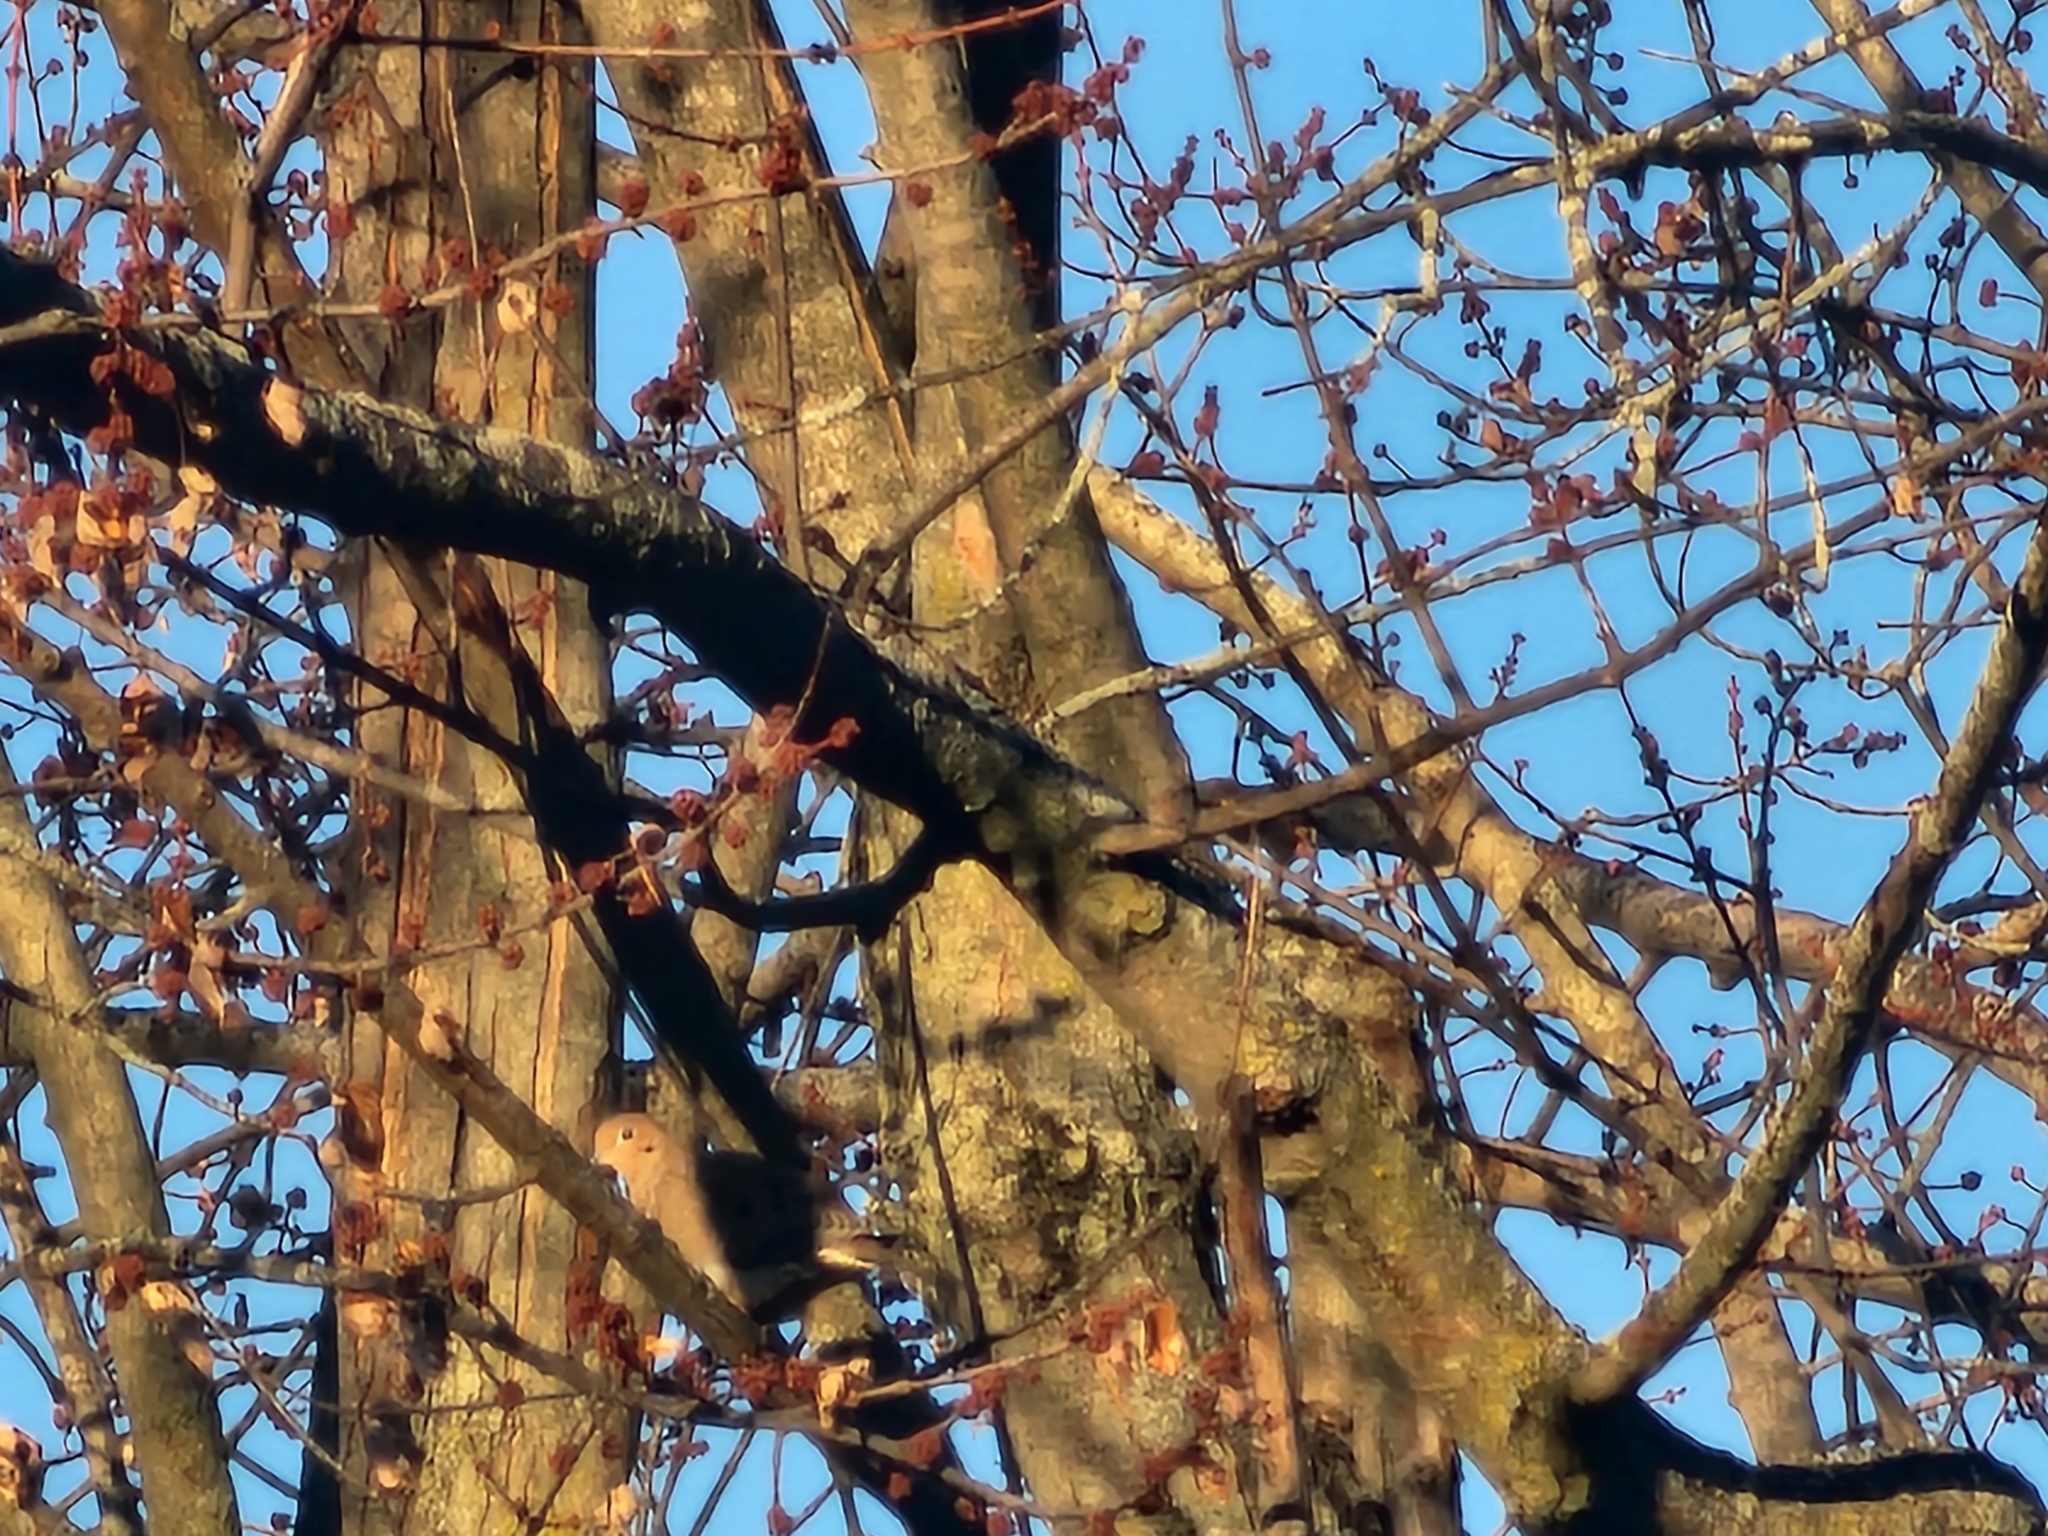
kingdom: Animalia
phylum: Chordata
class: Aves
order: Columbiformes
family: Columbidae
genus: Zenaida
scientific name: Zenaida macroura
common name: Mourning dove
